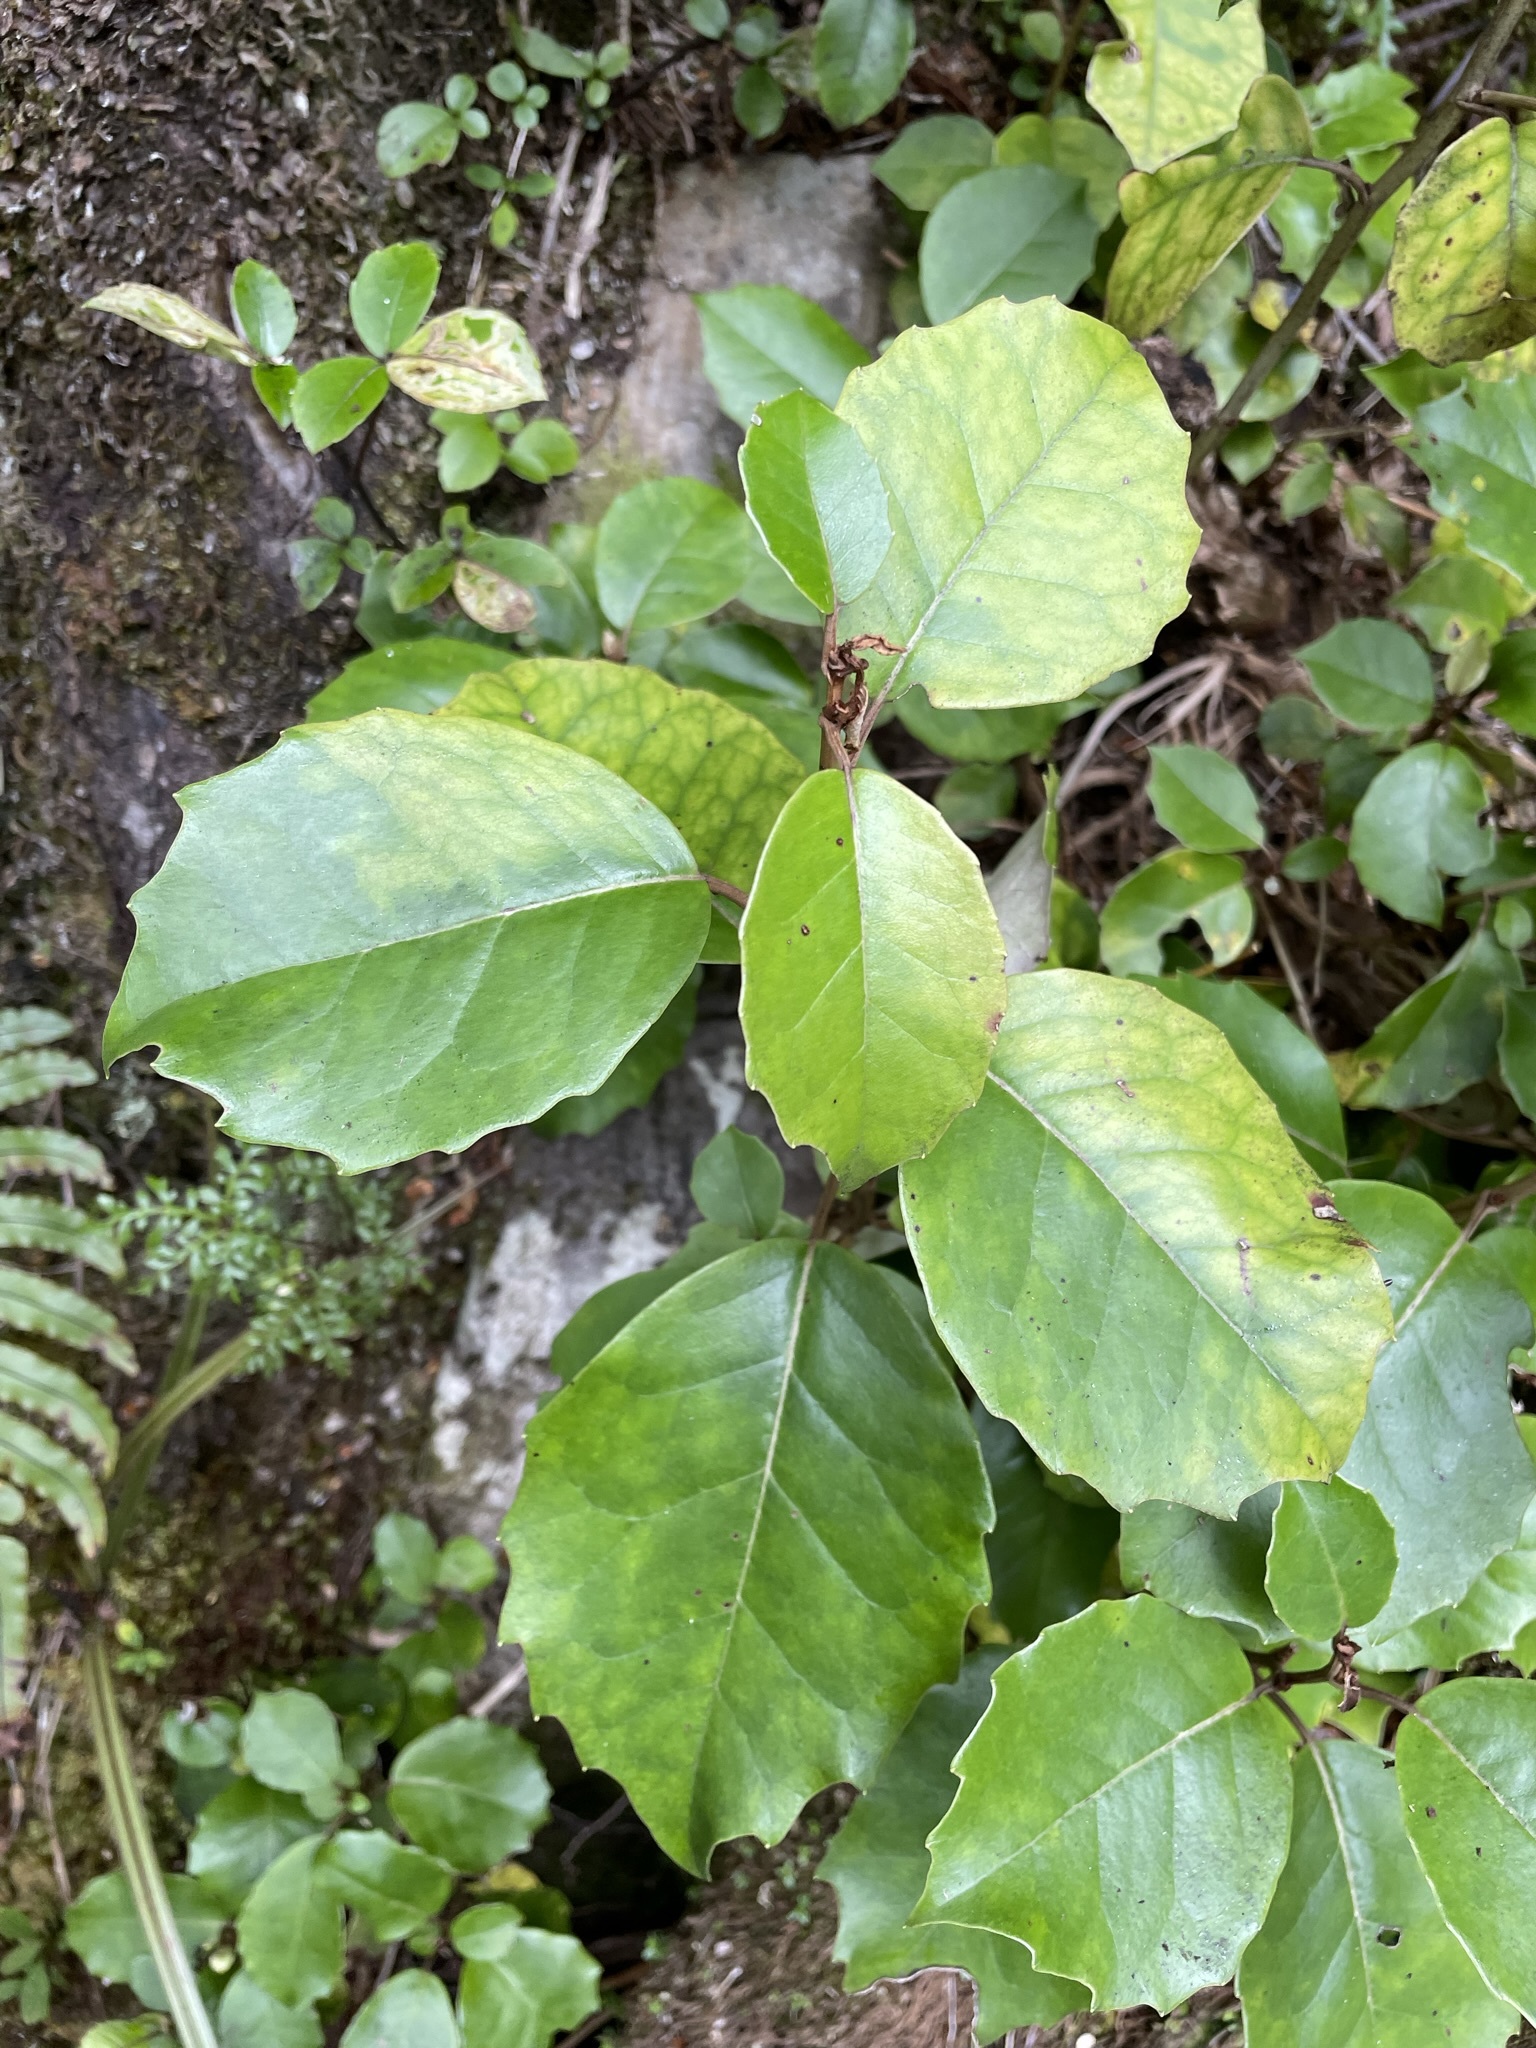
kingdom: Plantae
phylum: Tracheophyta
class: Magnoliopsida
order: Asterales
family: Asteraceae
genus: Olearia
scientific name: Olearia arborescens
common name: Glossy tree daisy
